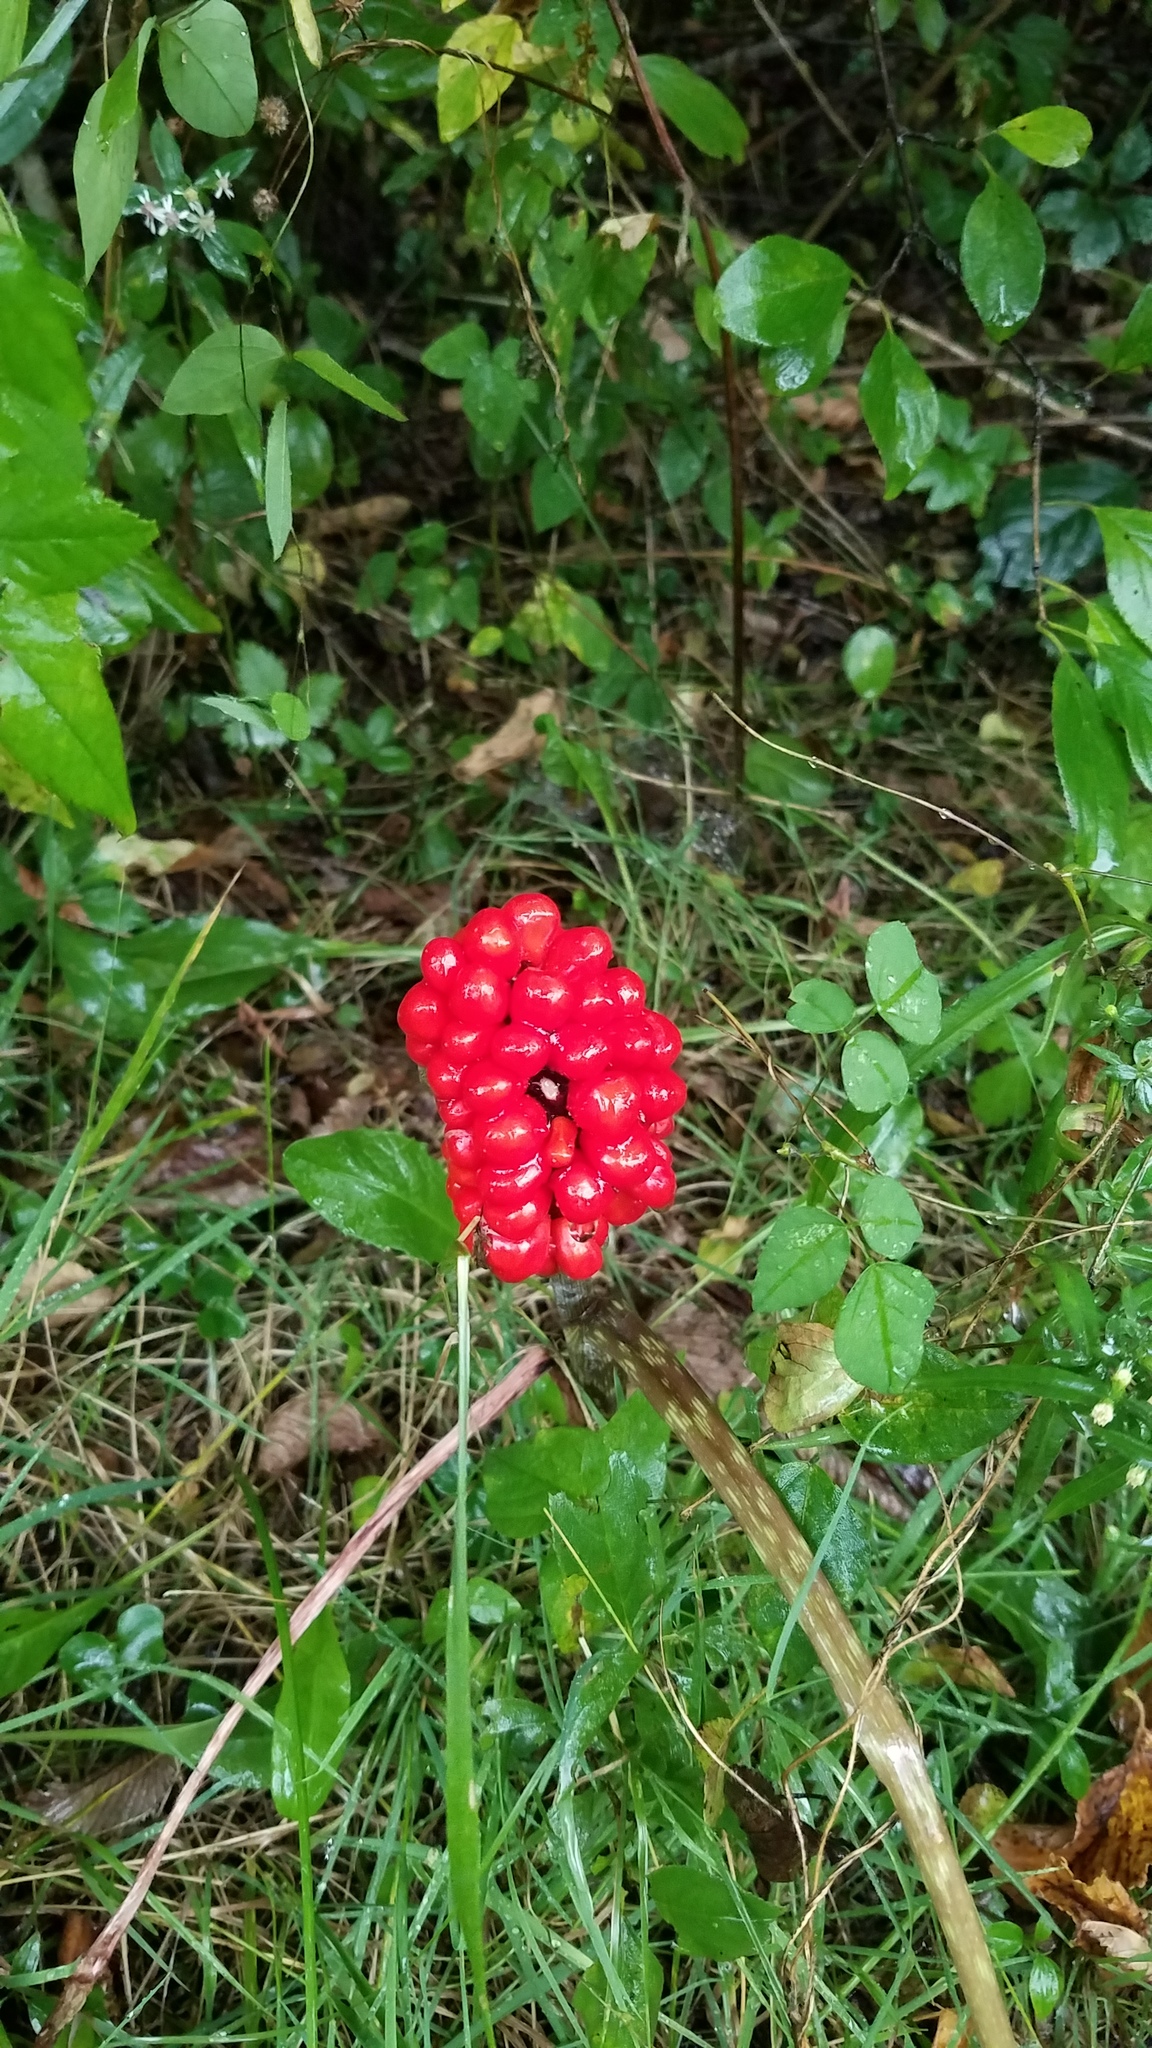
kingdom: Plantae
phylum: Tracheophyta
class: Liliopsida
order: Alismatales
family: Araceae
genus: Arisaema
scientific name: Arisaema triphyllum
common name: Jack-in-the-pulpit
